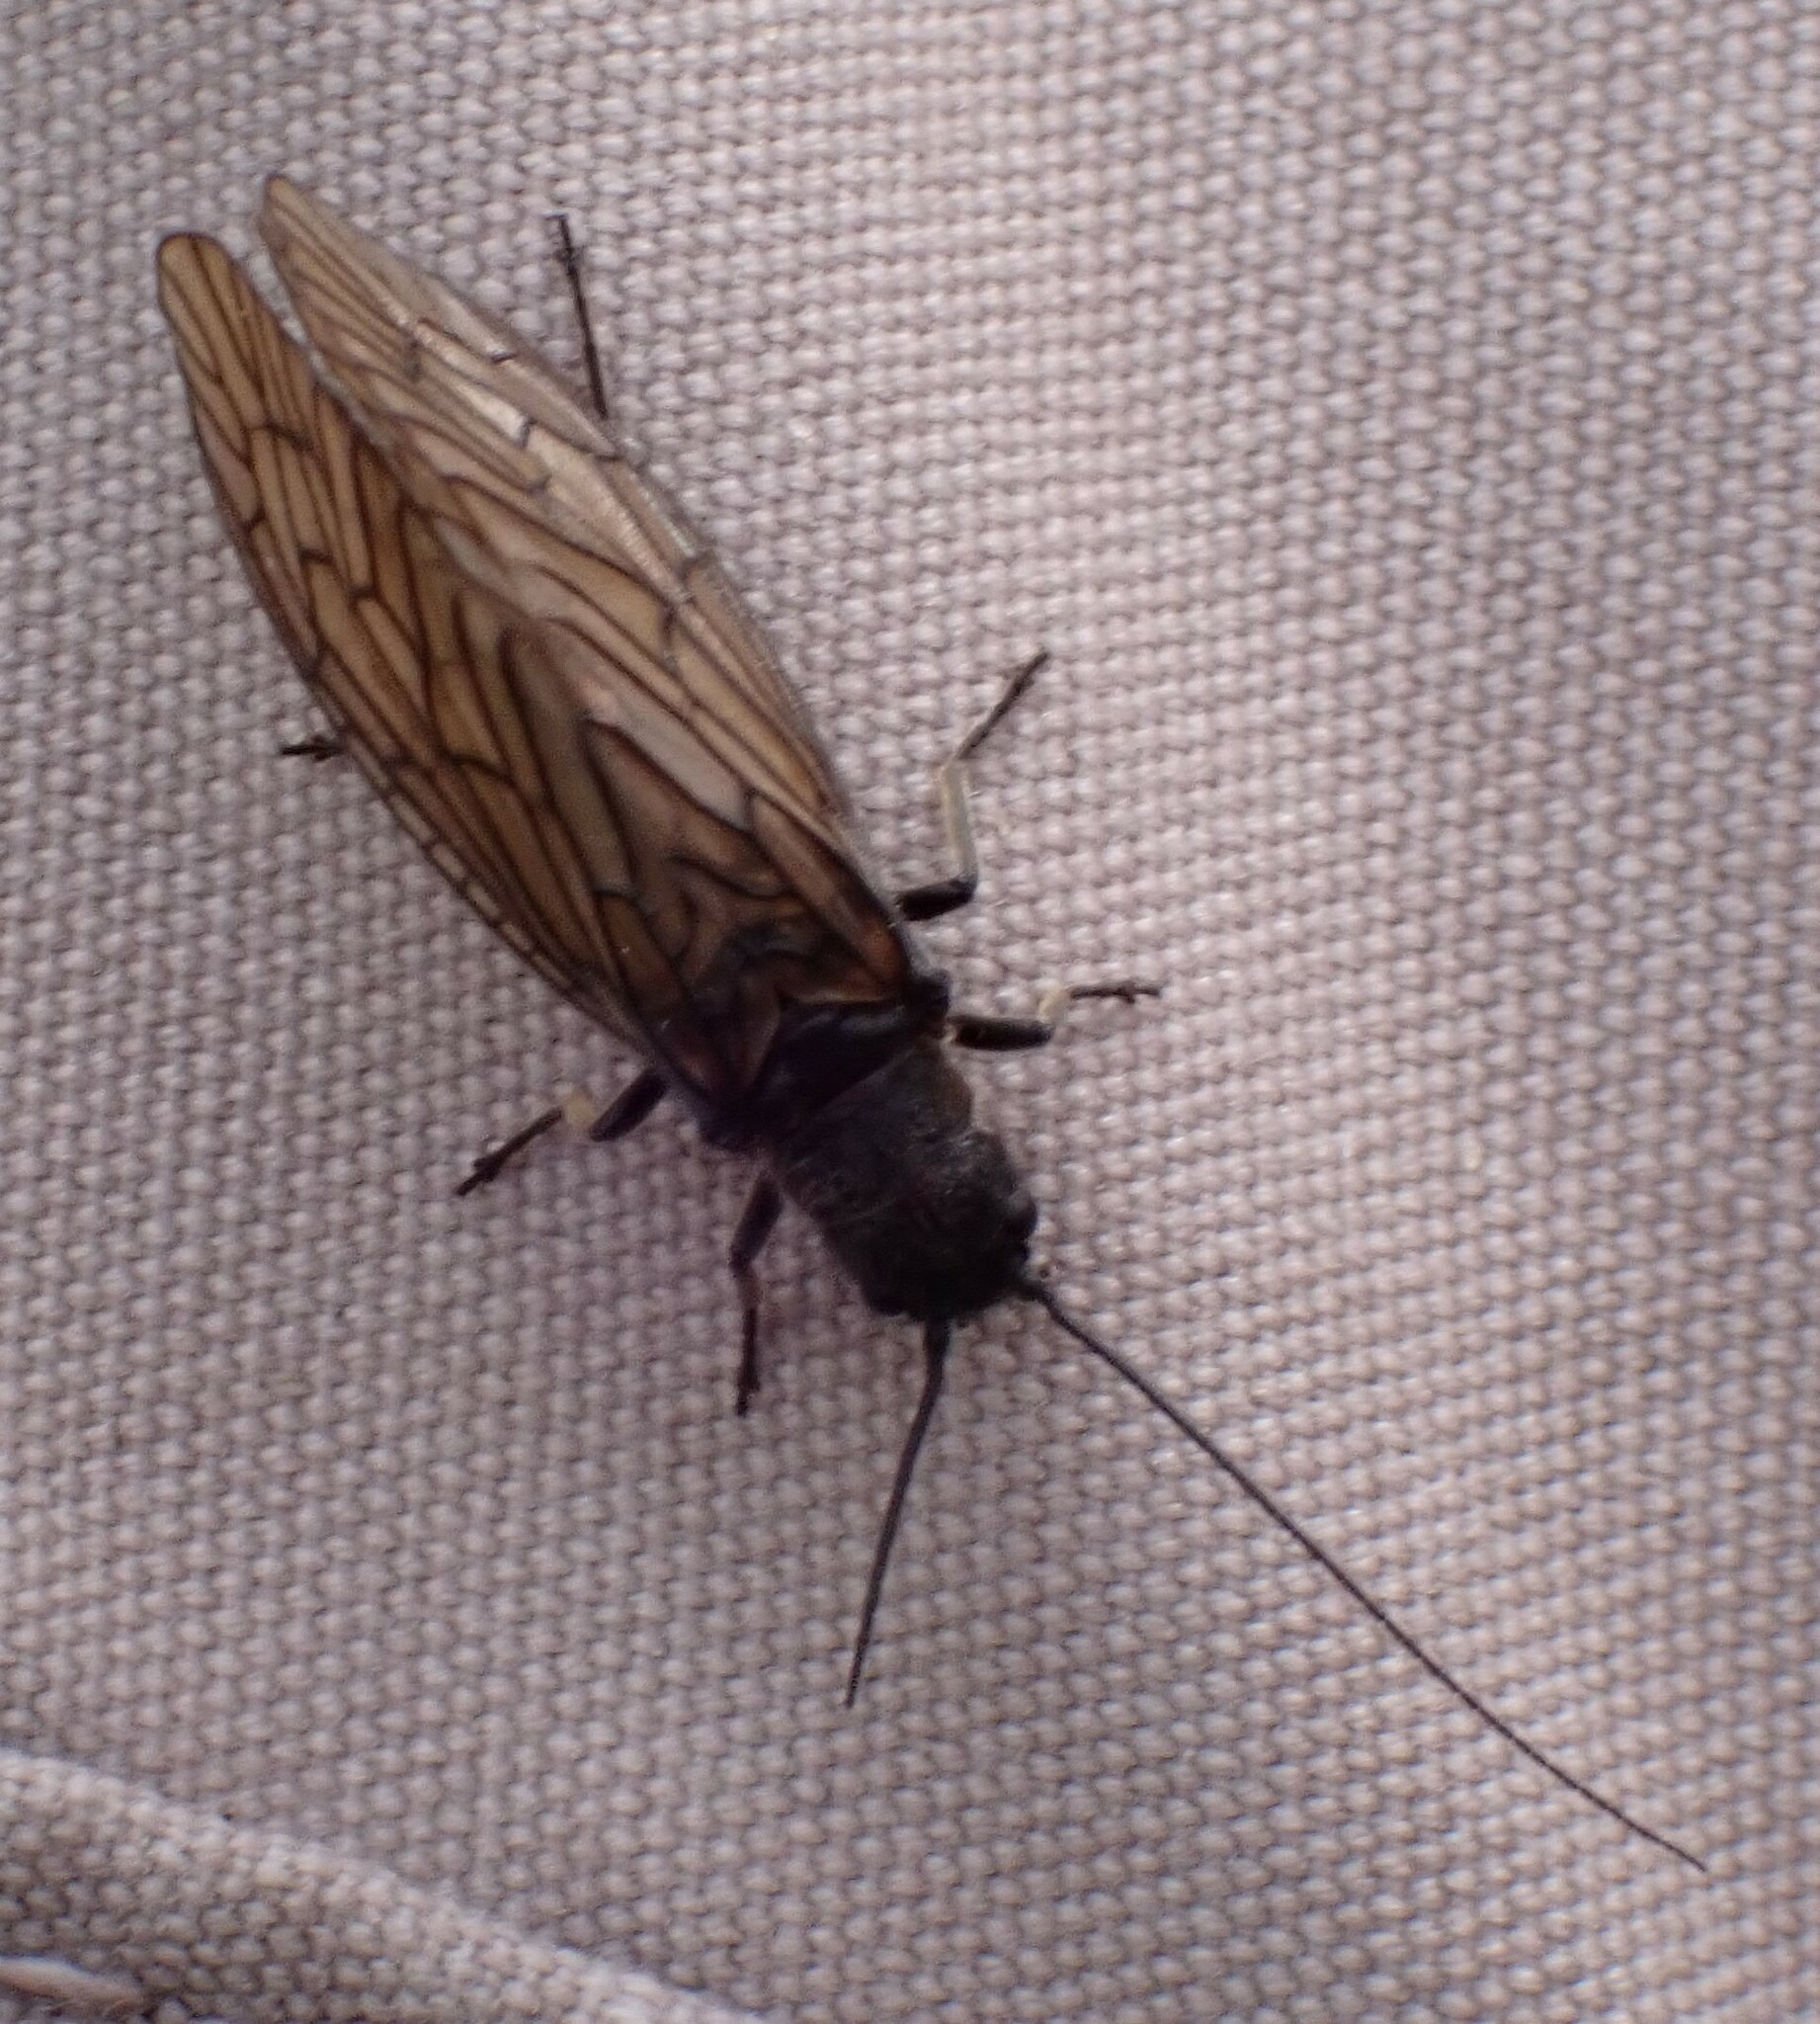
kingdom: Animalia
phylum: Arthropoda
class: Insecta
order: Megaloptera
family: Sialidae
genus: Sialis
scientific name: Sialis
